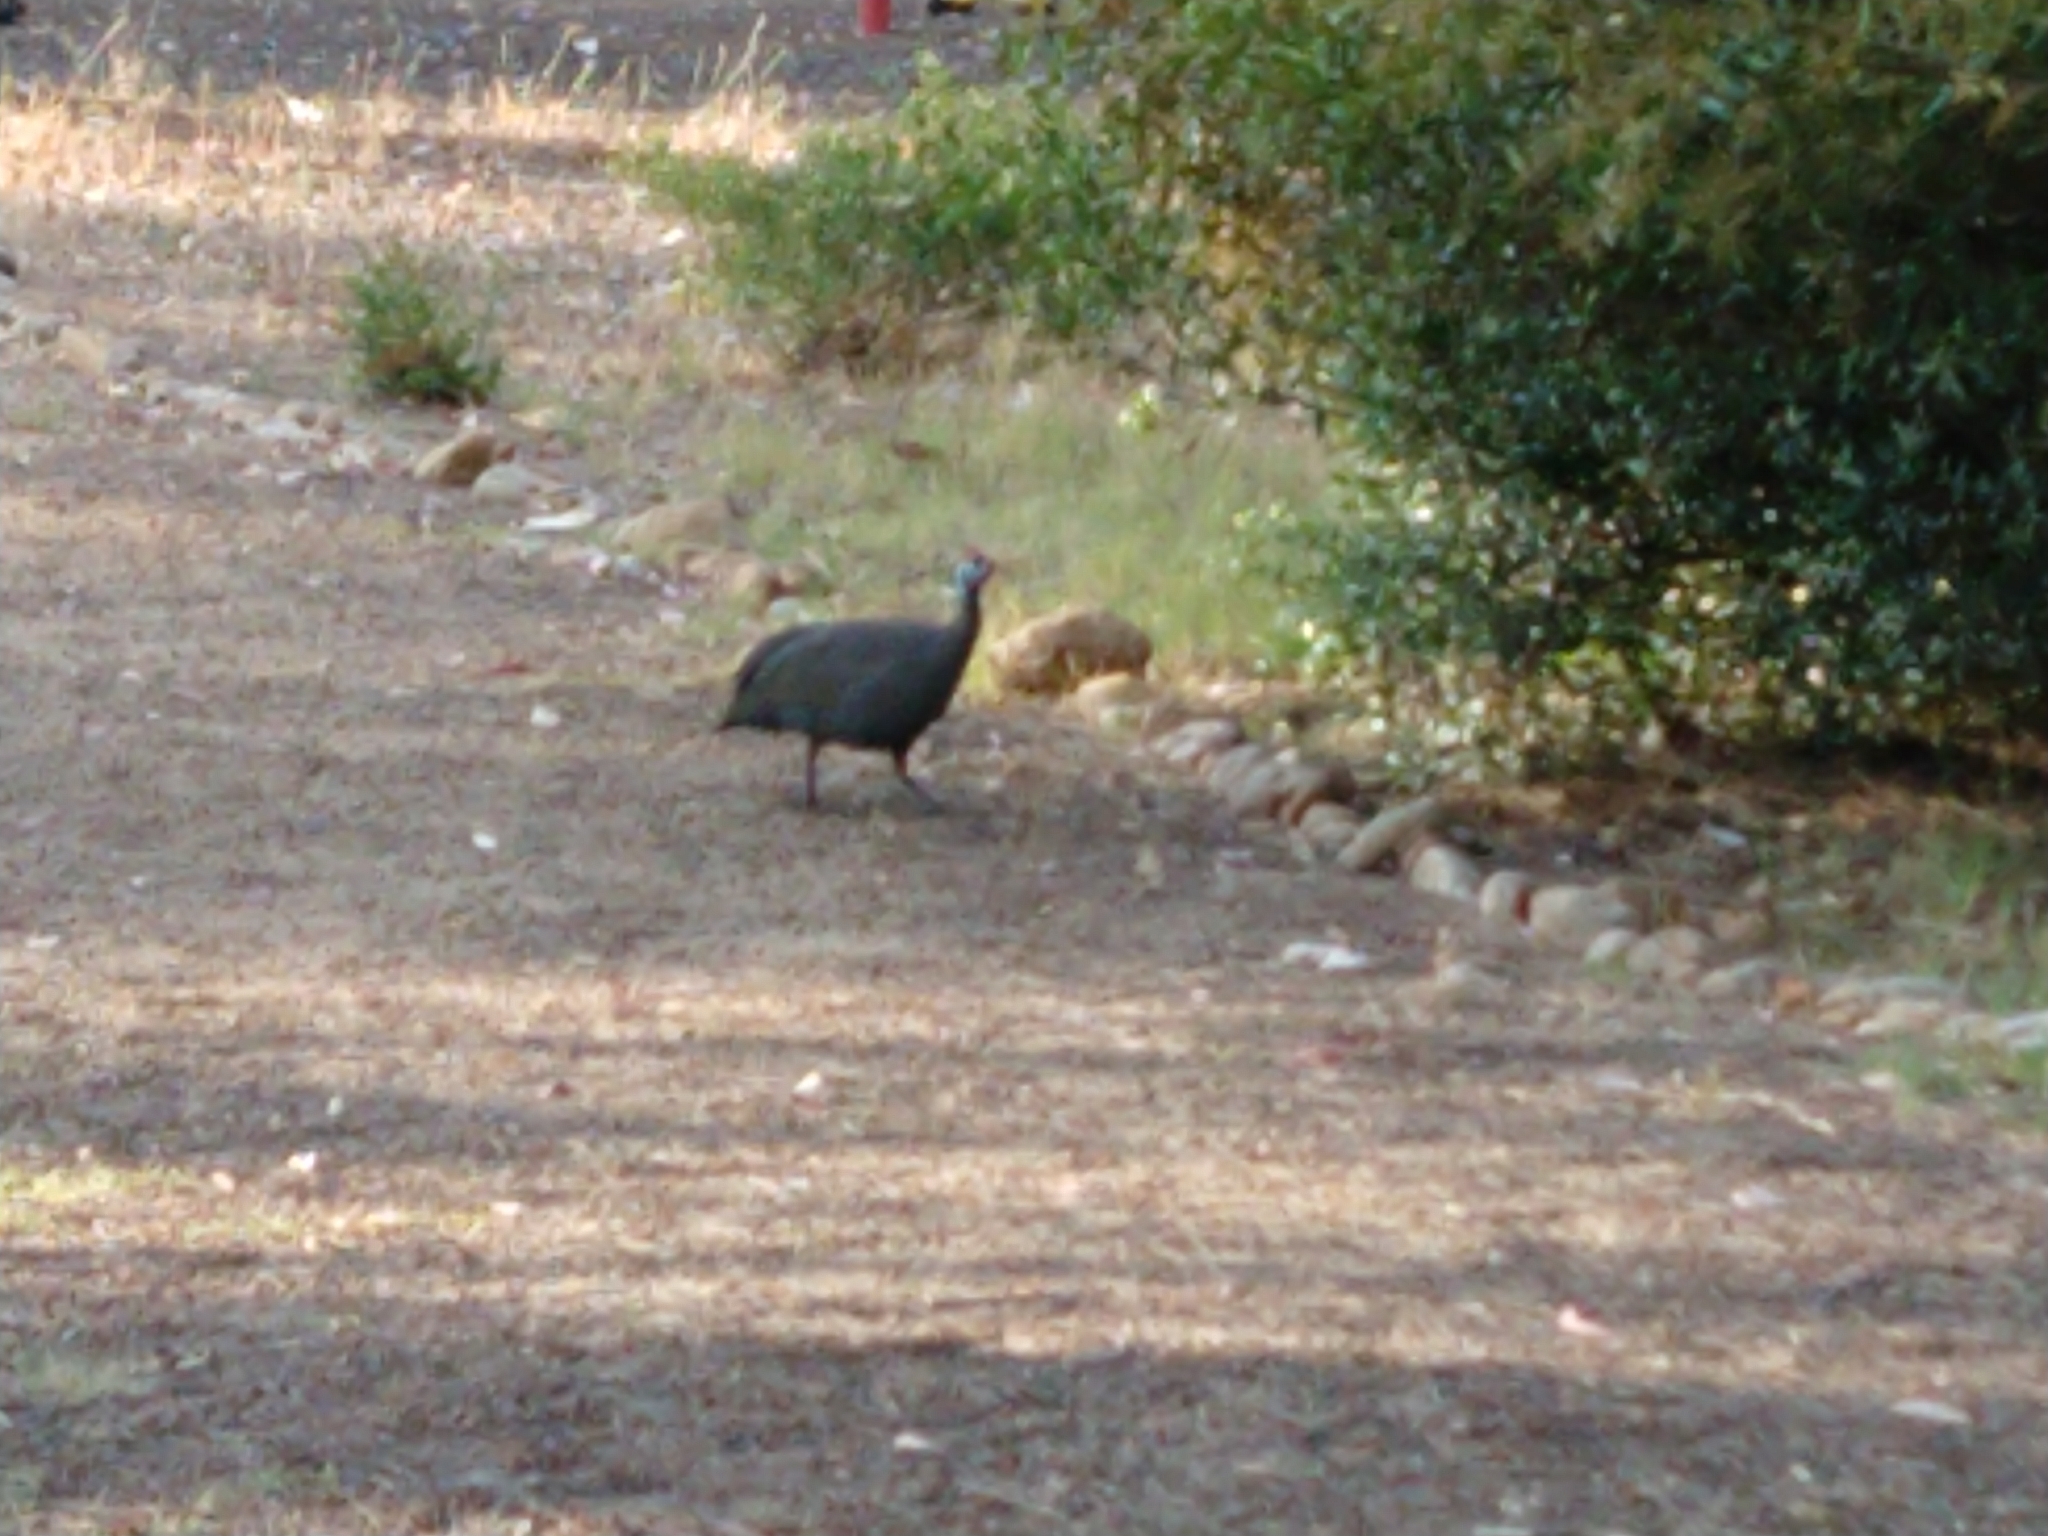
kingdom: Animalia
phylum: Chordata
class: Aves
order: Galliformes
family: Numididae
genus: Numida
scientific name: Numida meleagris
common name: Helmeted guineafowl
